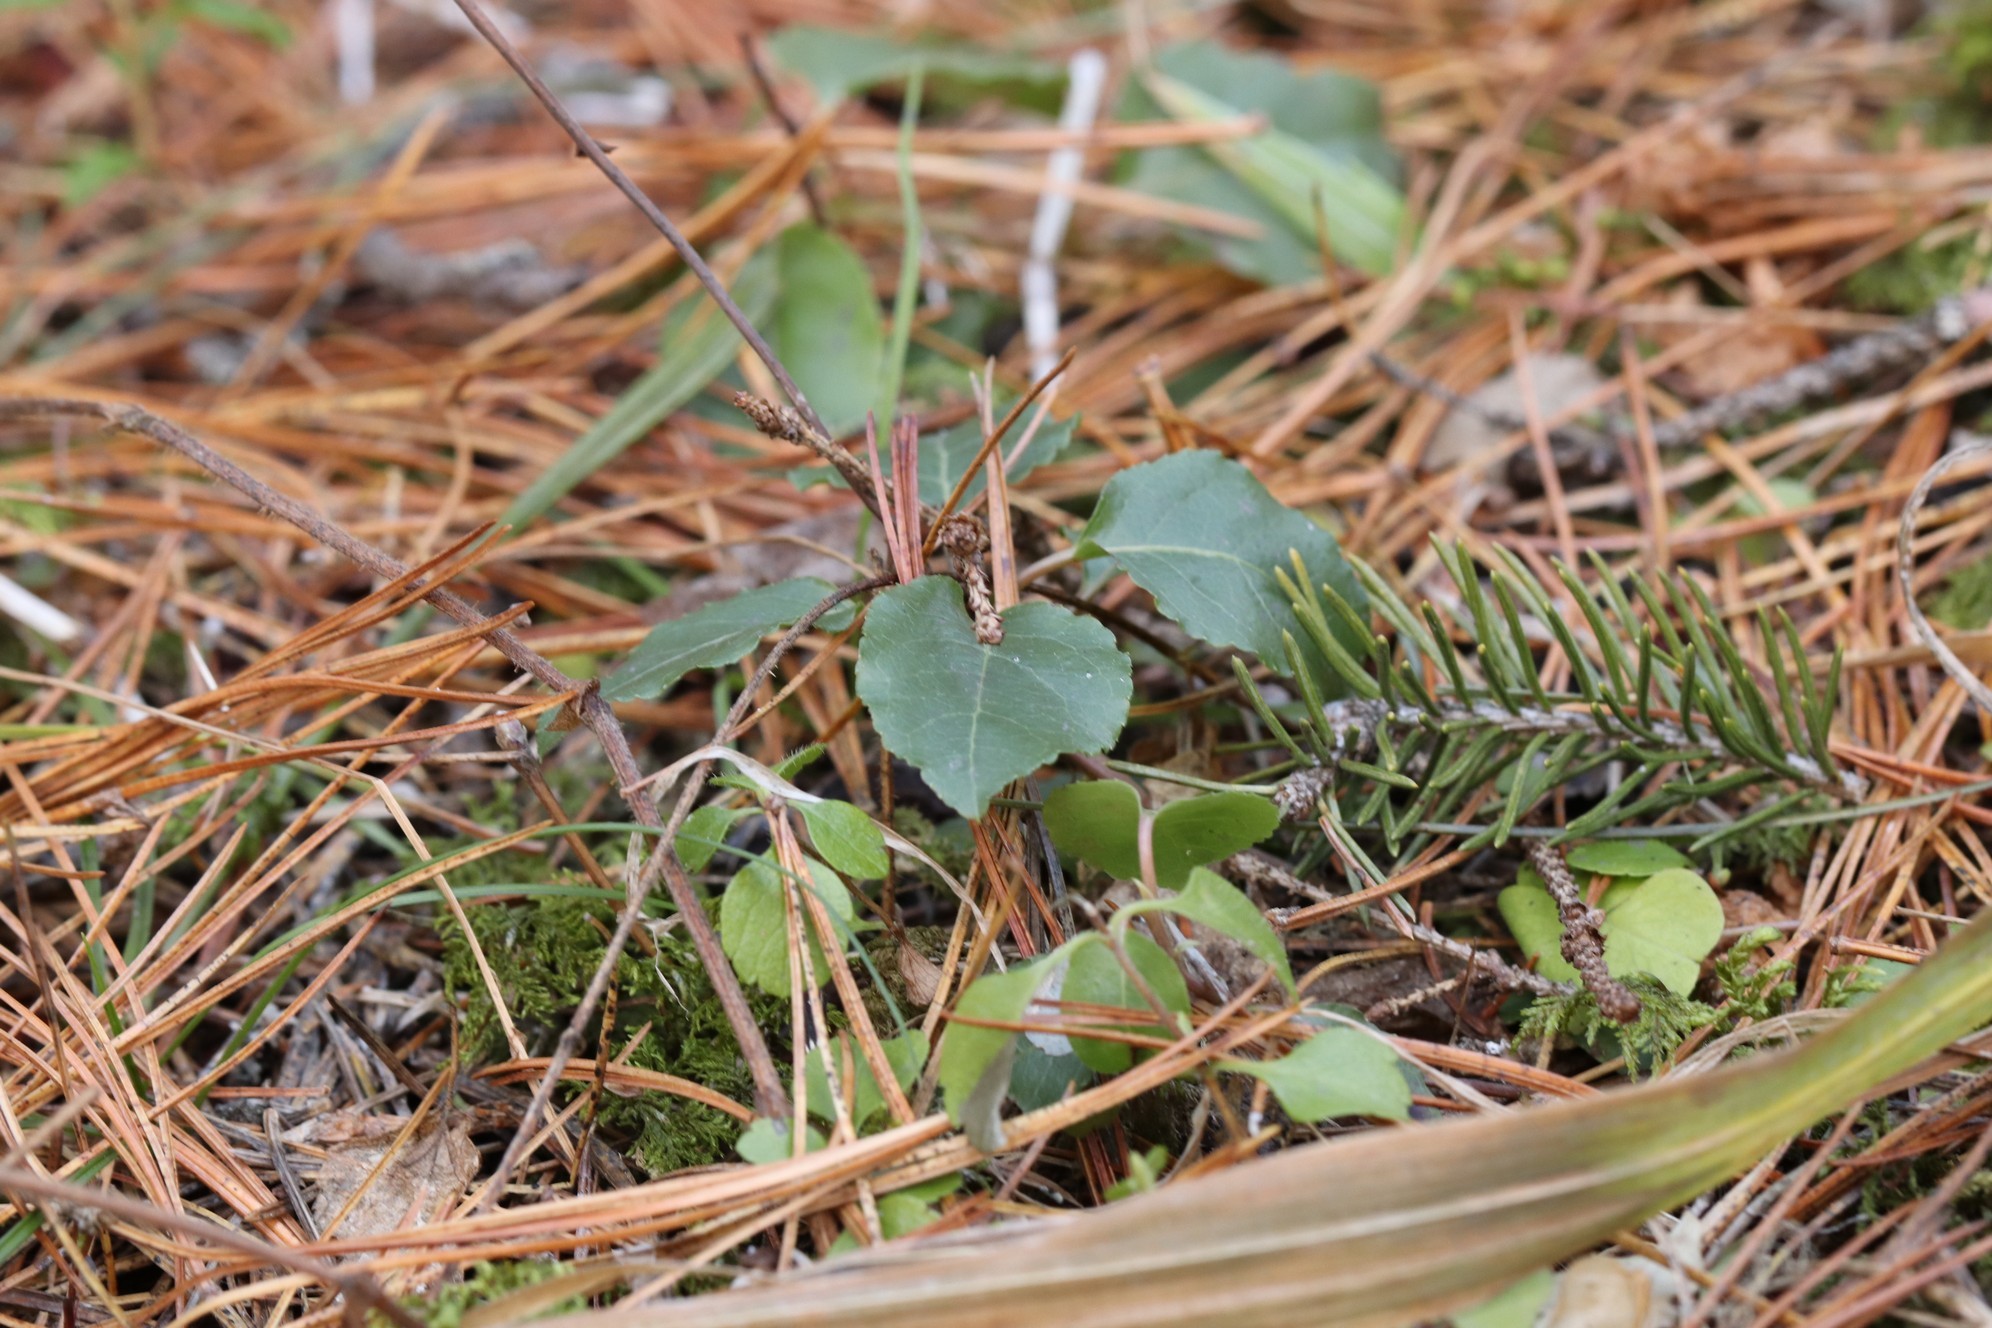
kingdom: Plantae
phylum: Tracheophyta
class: Magnoliopsida
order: Ericales
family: Ericaceae
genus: Orthilia
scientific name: Orthilia secunda
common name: One-sided orthilia
